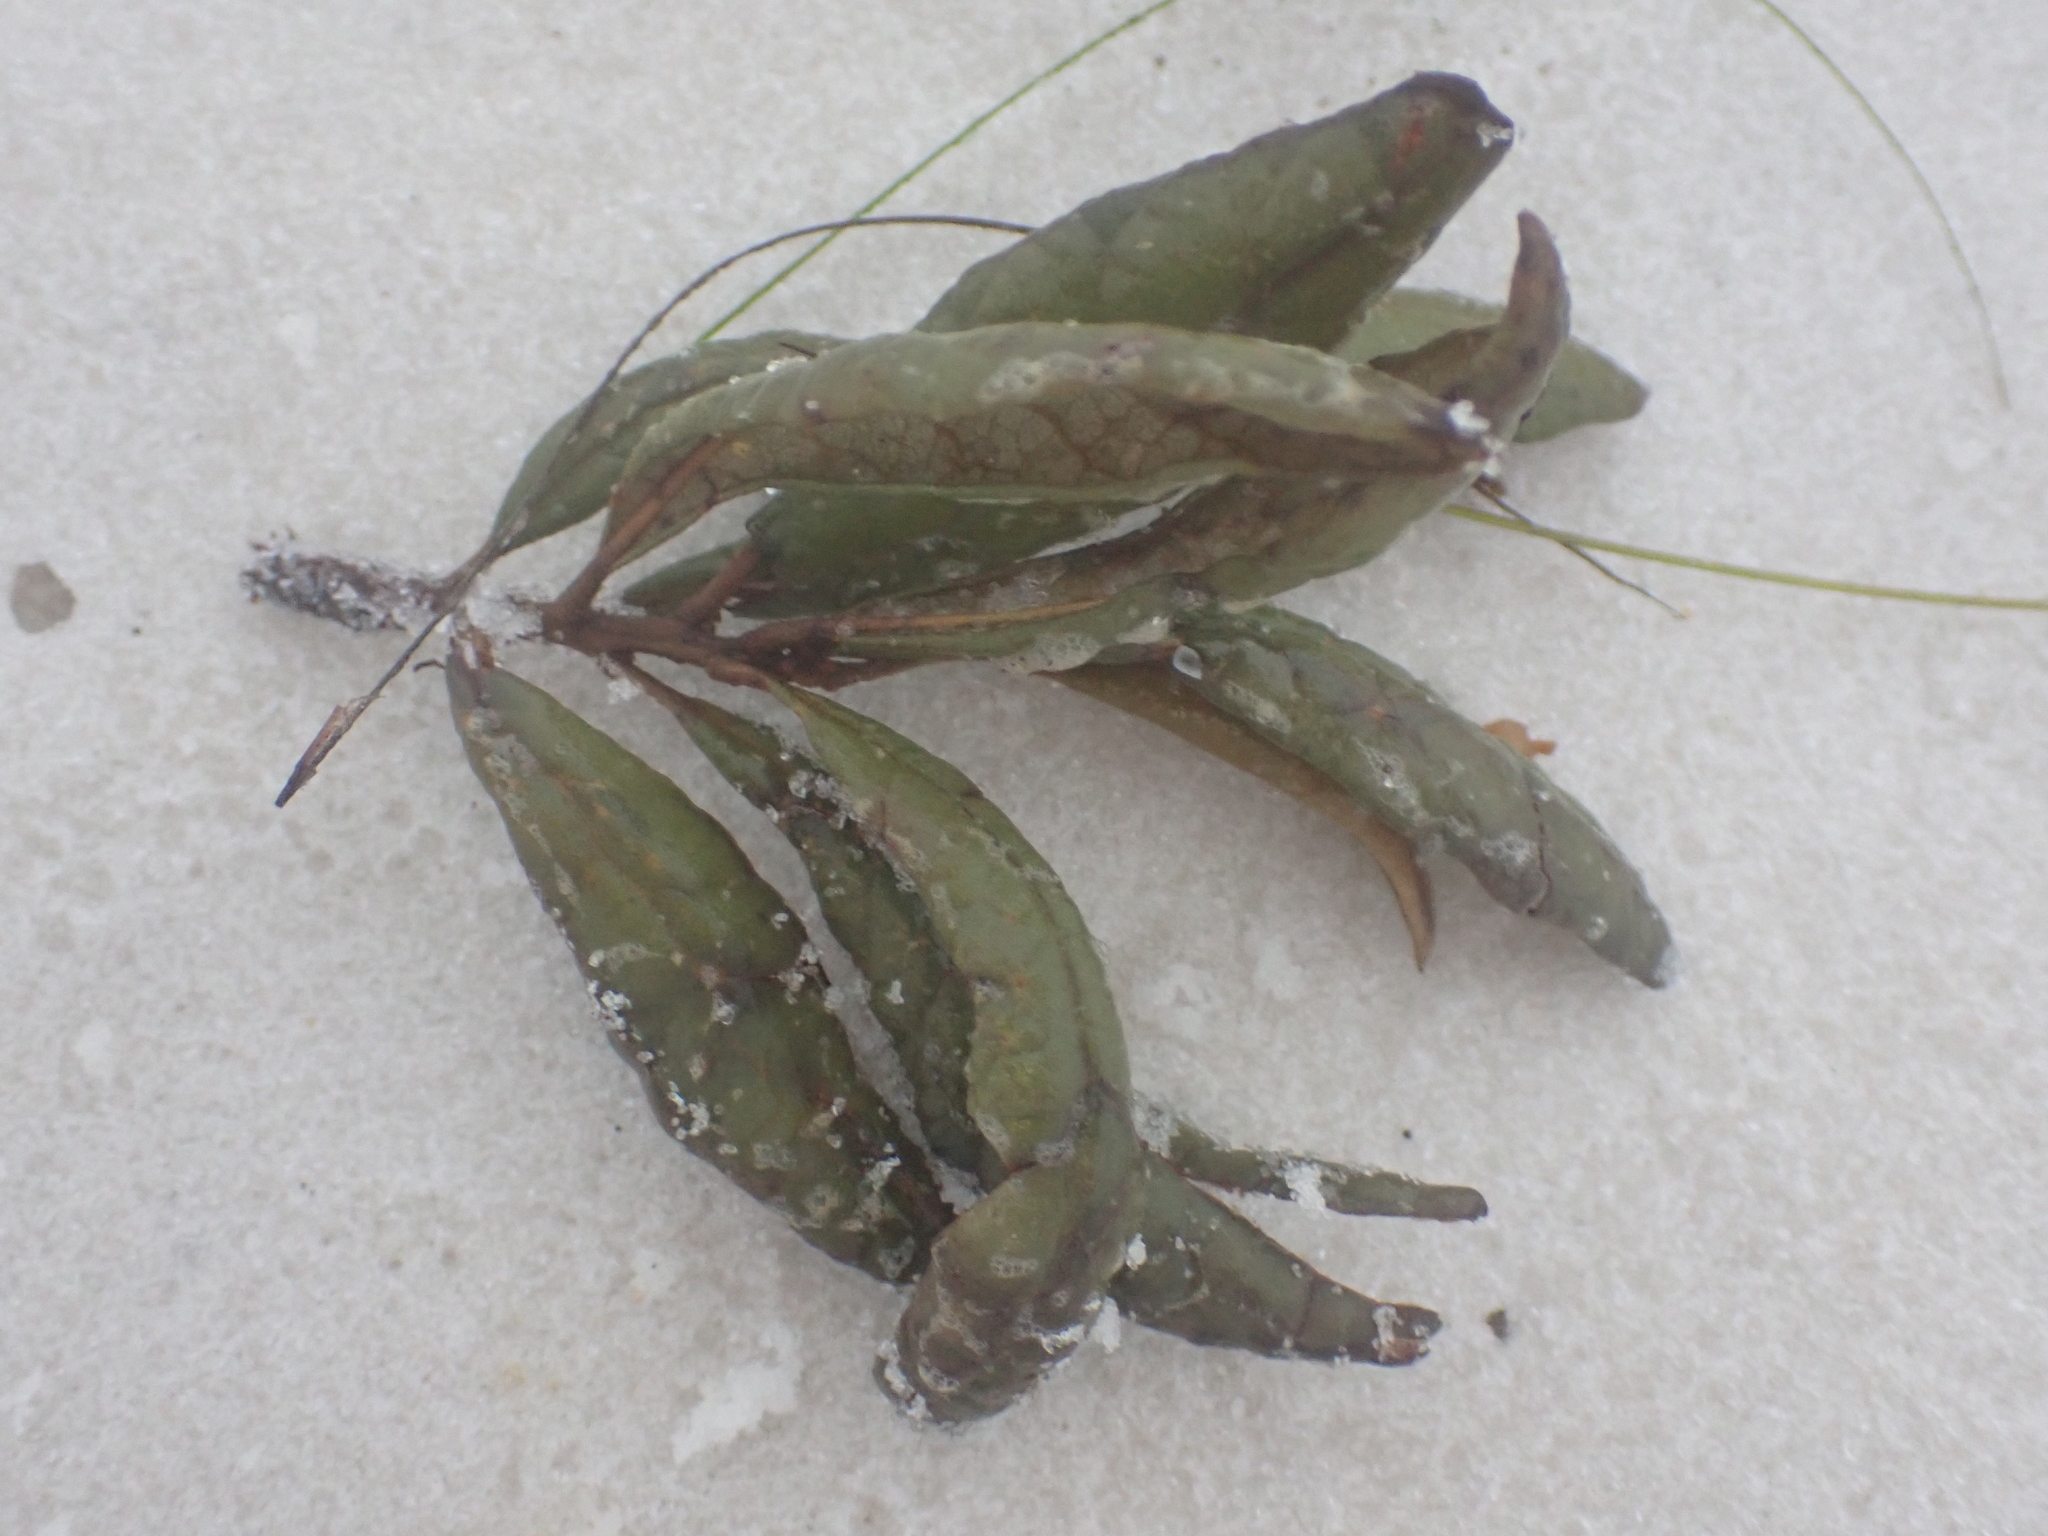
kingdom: Plantae
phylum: Tracheophyta
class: Magnoliopsida
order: Fagales
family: Fagaceae
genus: Quercus
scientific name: Quercus geminata
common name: Sand live oak
